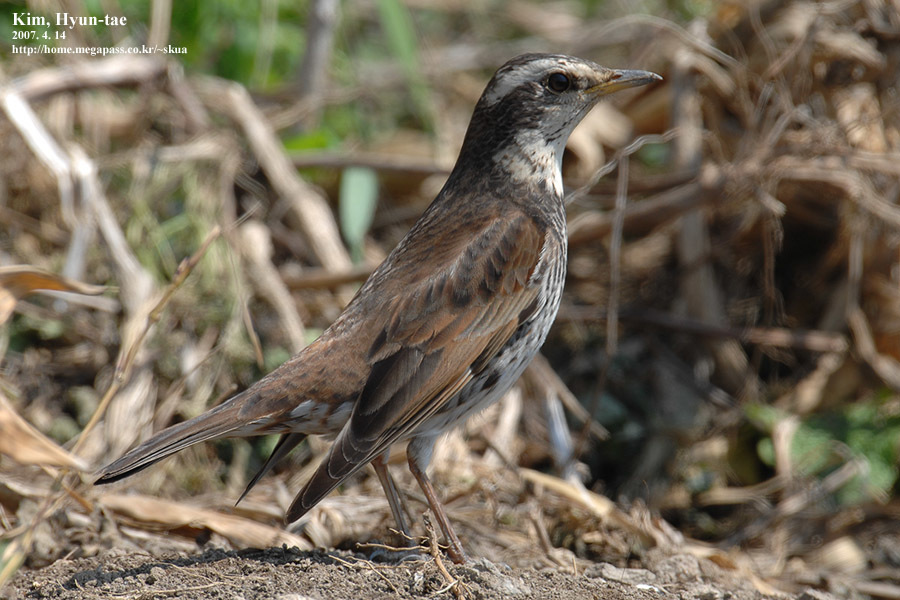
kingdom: Animalia
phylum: Chordata
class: Aves
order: Passeriformes
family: Turdidae
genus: Turdus
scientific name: Turdus eunomus
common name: Dusky thrush
